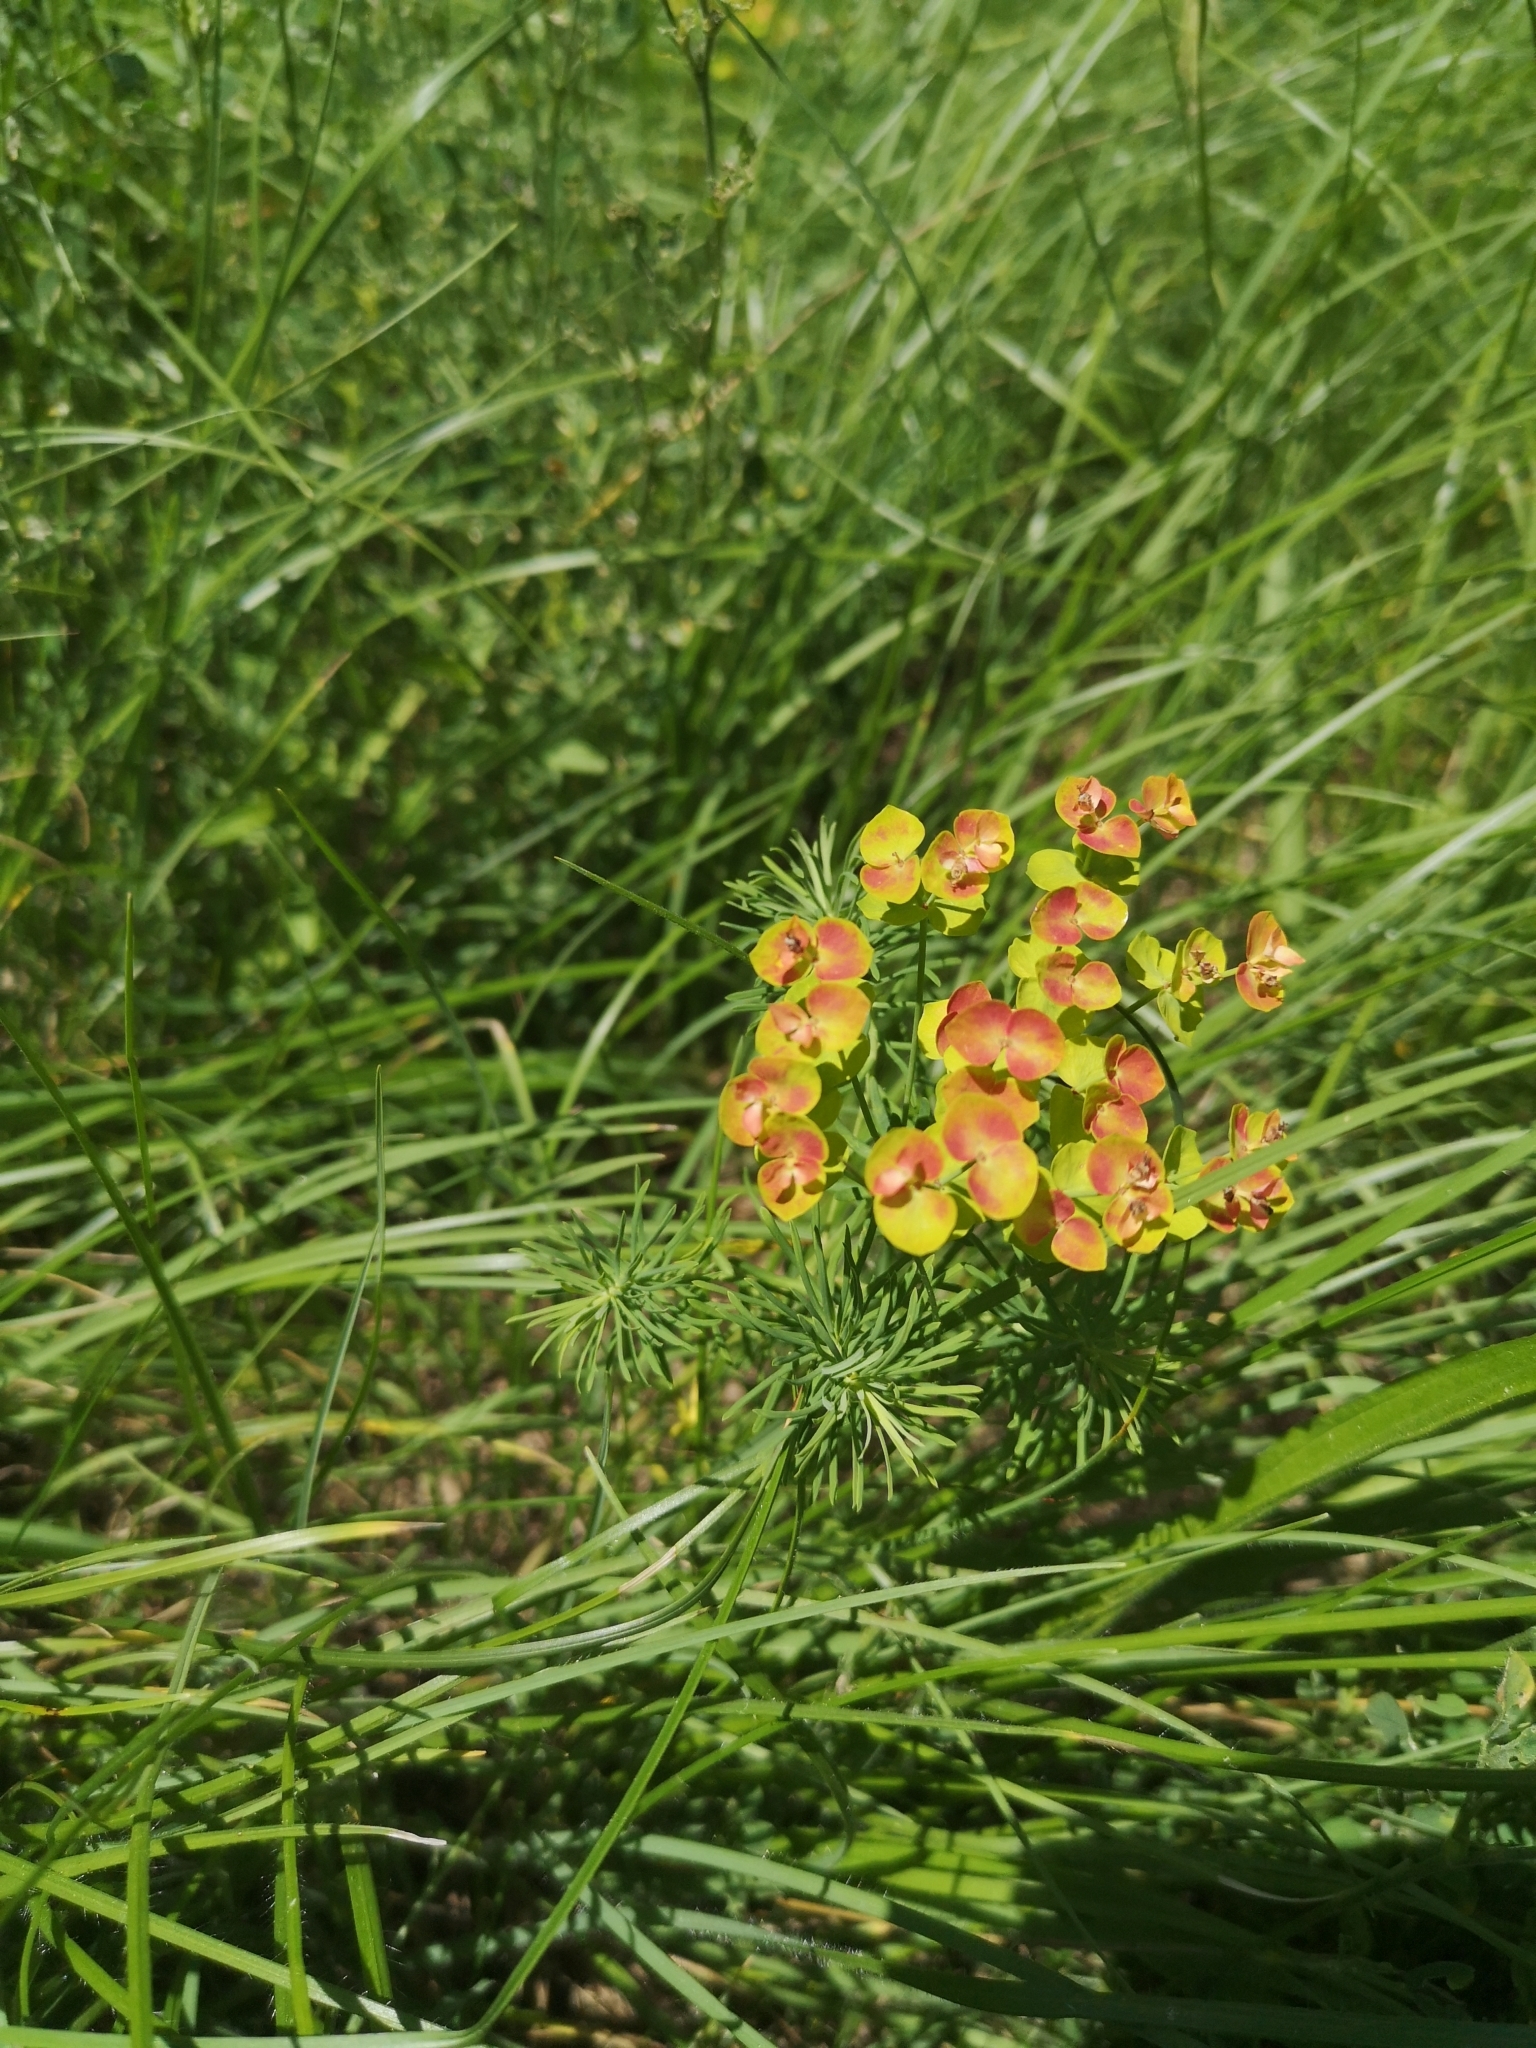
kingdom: Plantae
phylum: Tracheophyta
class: Magnoliopsida
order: Malpighiales
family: Euphorbiaceae
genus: Euphorbia
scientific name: Euphorbia cyparissias
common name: Cypress spurge
